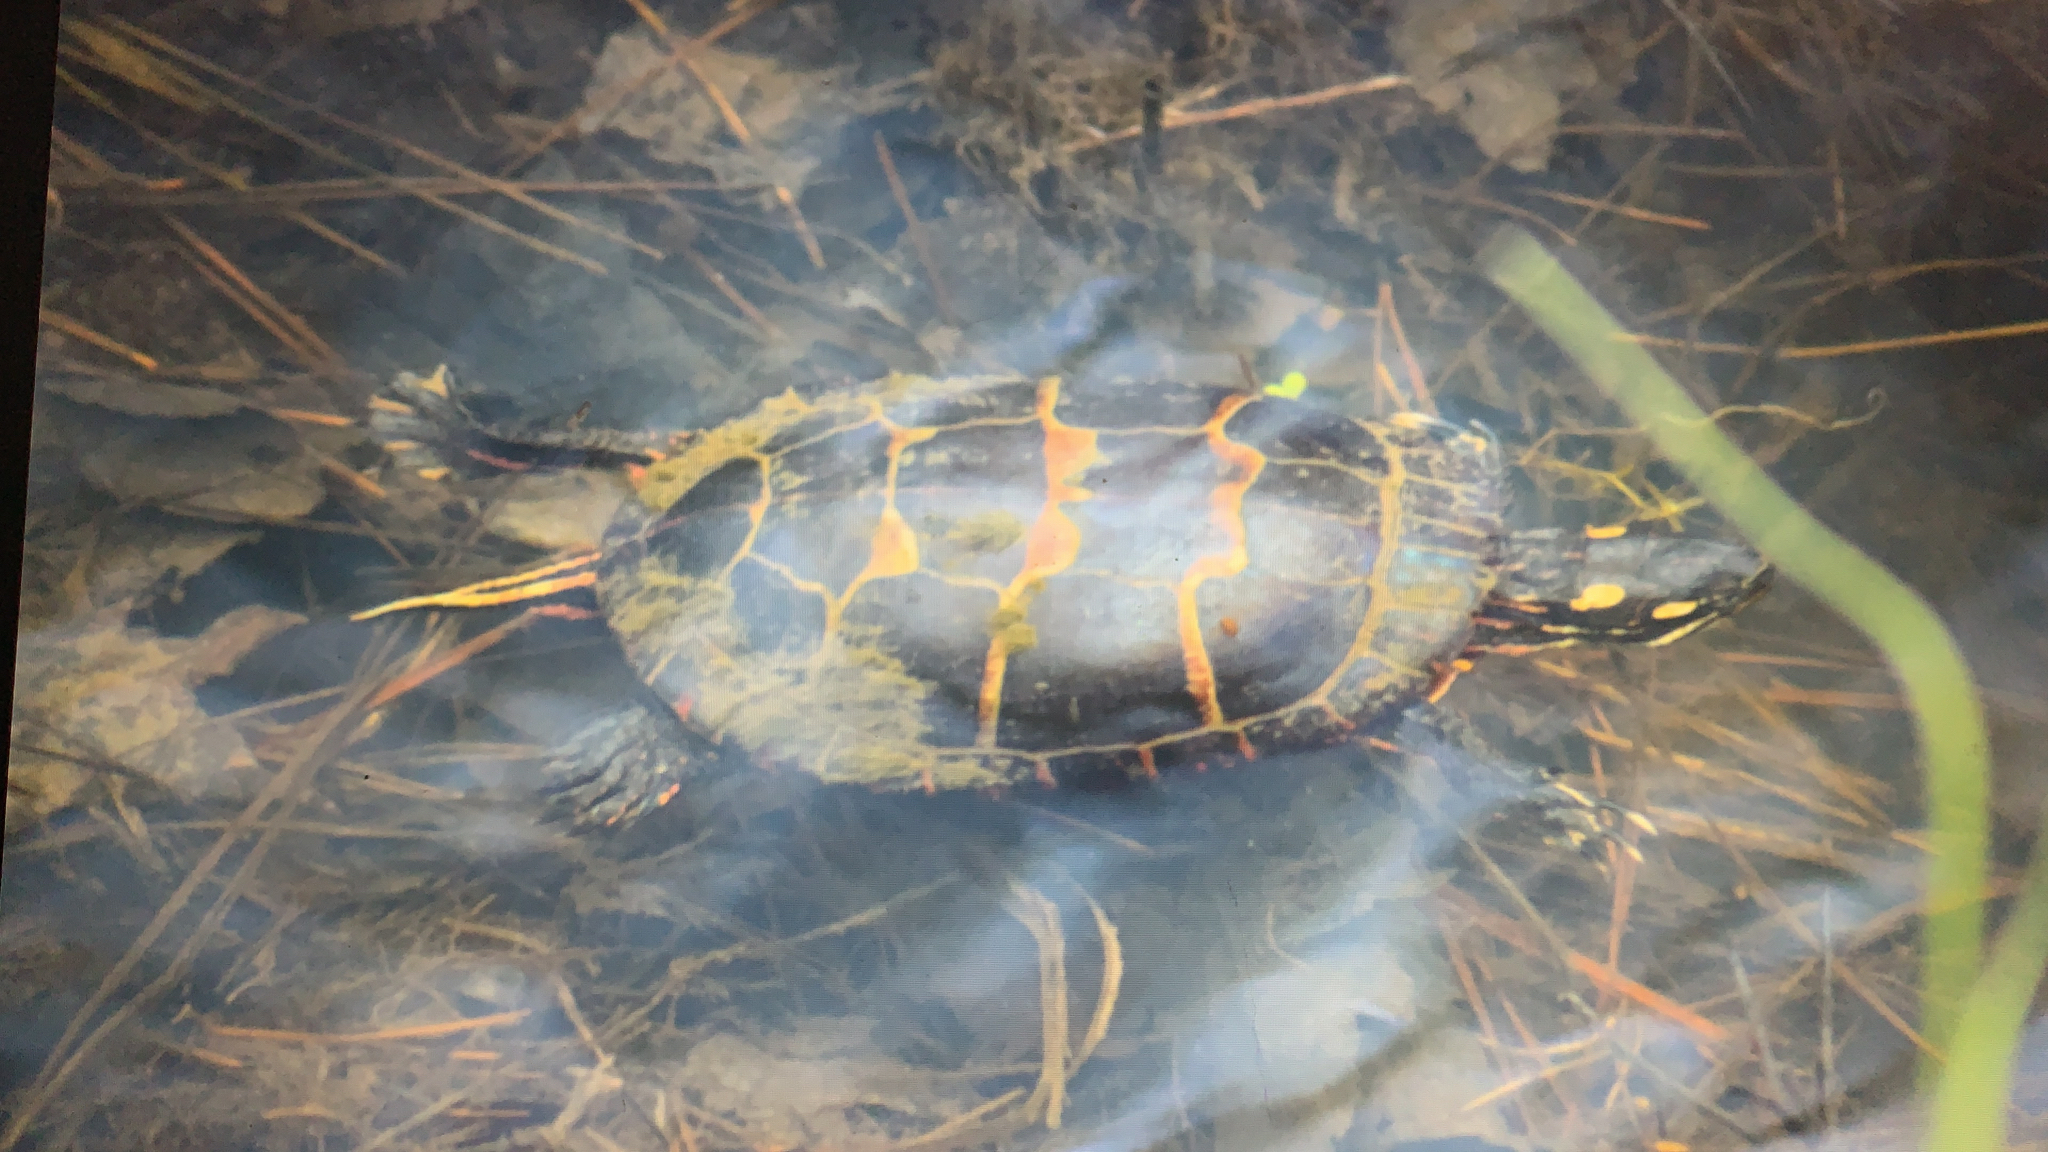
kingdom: Animalia
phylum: Chordata
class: Testudines
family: Emydidae
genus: Chrysemys
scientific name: Chrysemys picta
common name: Painted turtle
